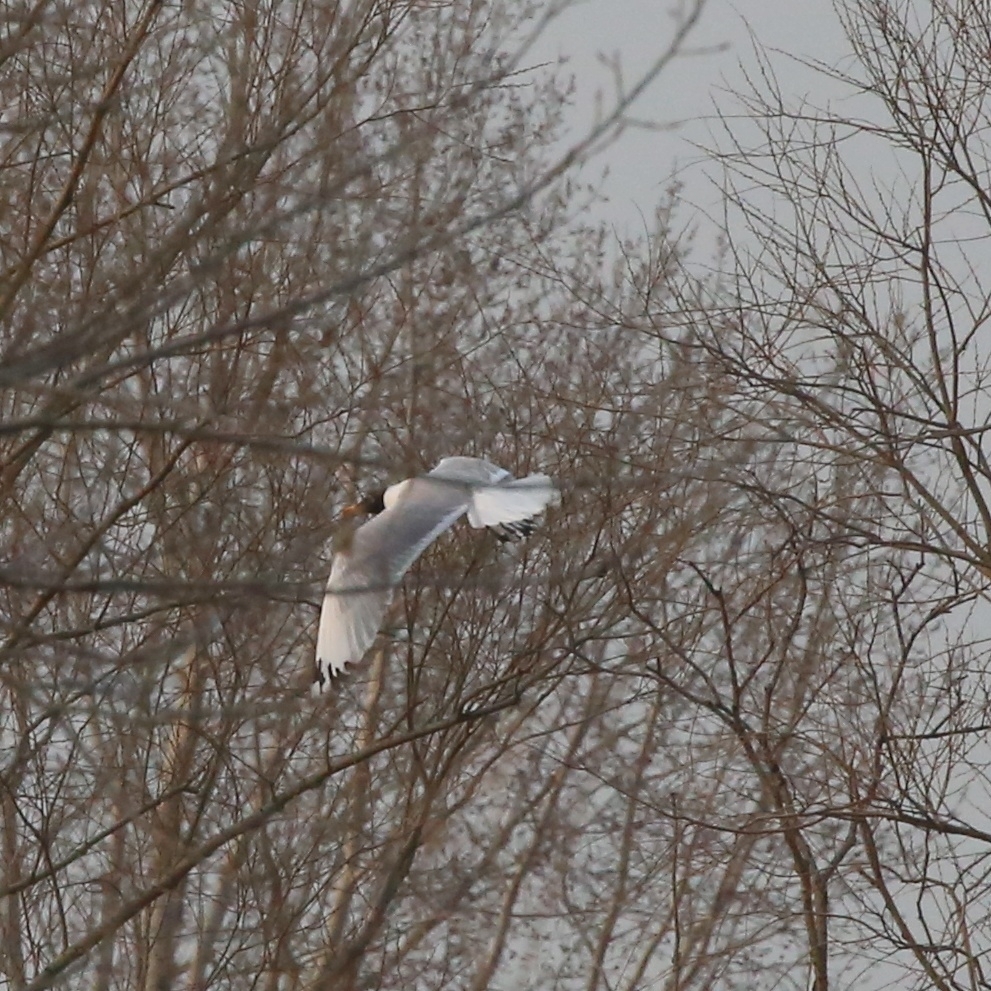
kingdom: Animalia
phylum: Chordata
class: Aves
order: Charadriiformes
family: Laridae
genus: Ichthyaetus
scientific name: Ichthyaetus ichthyaetus
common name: Pallas's gull
